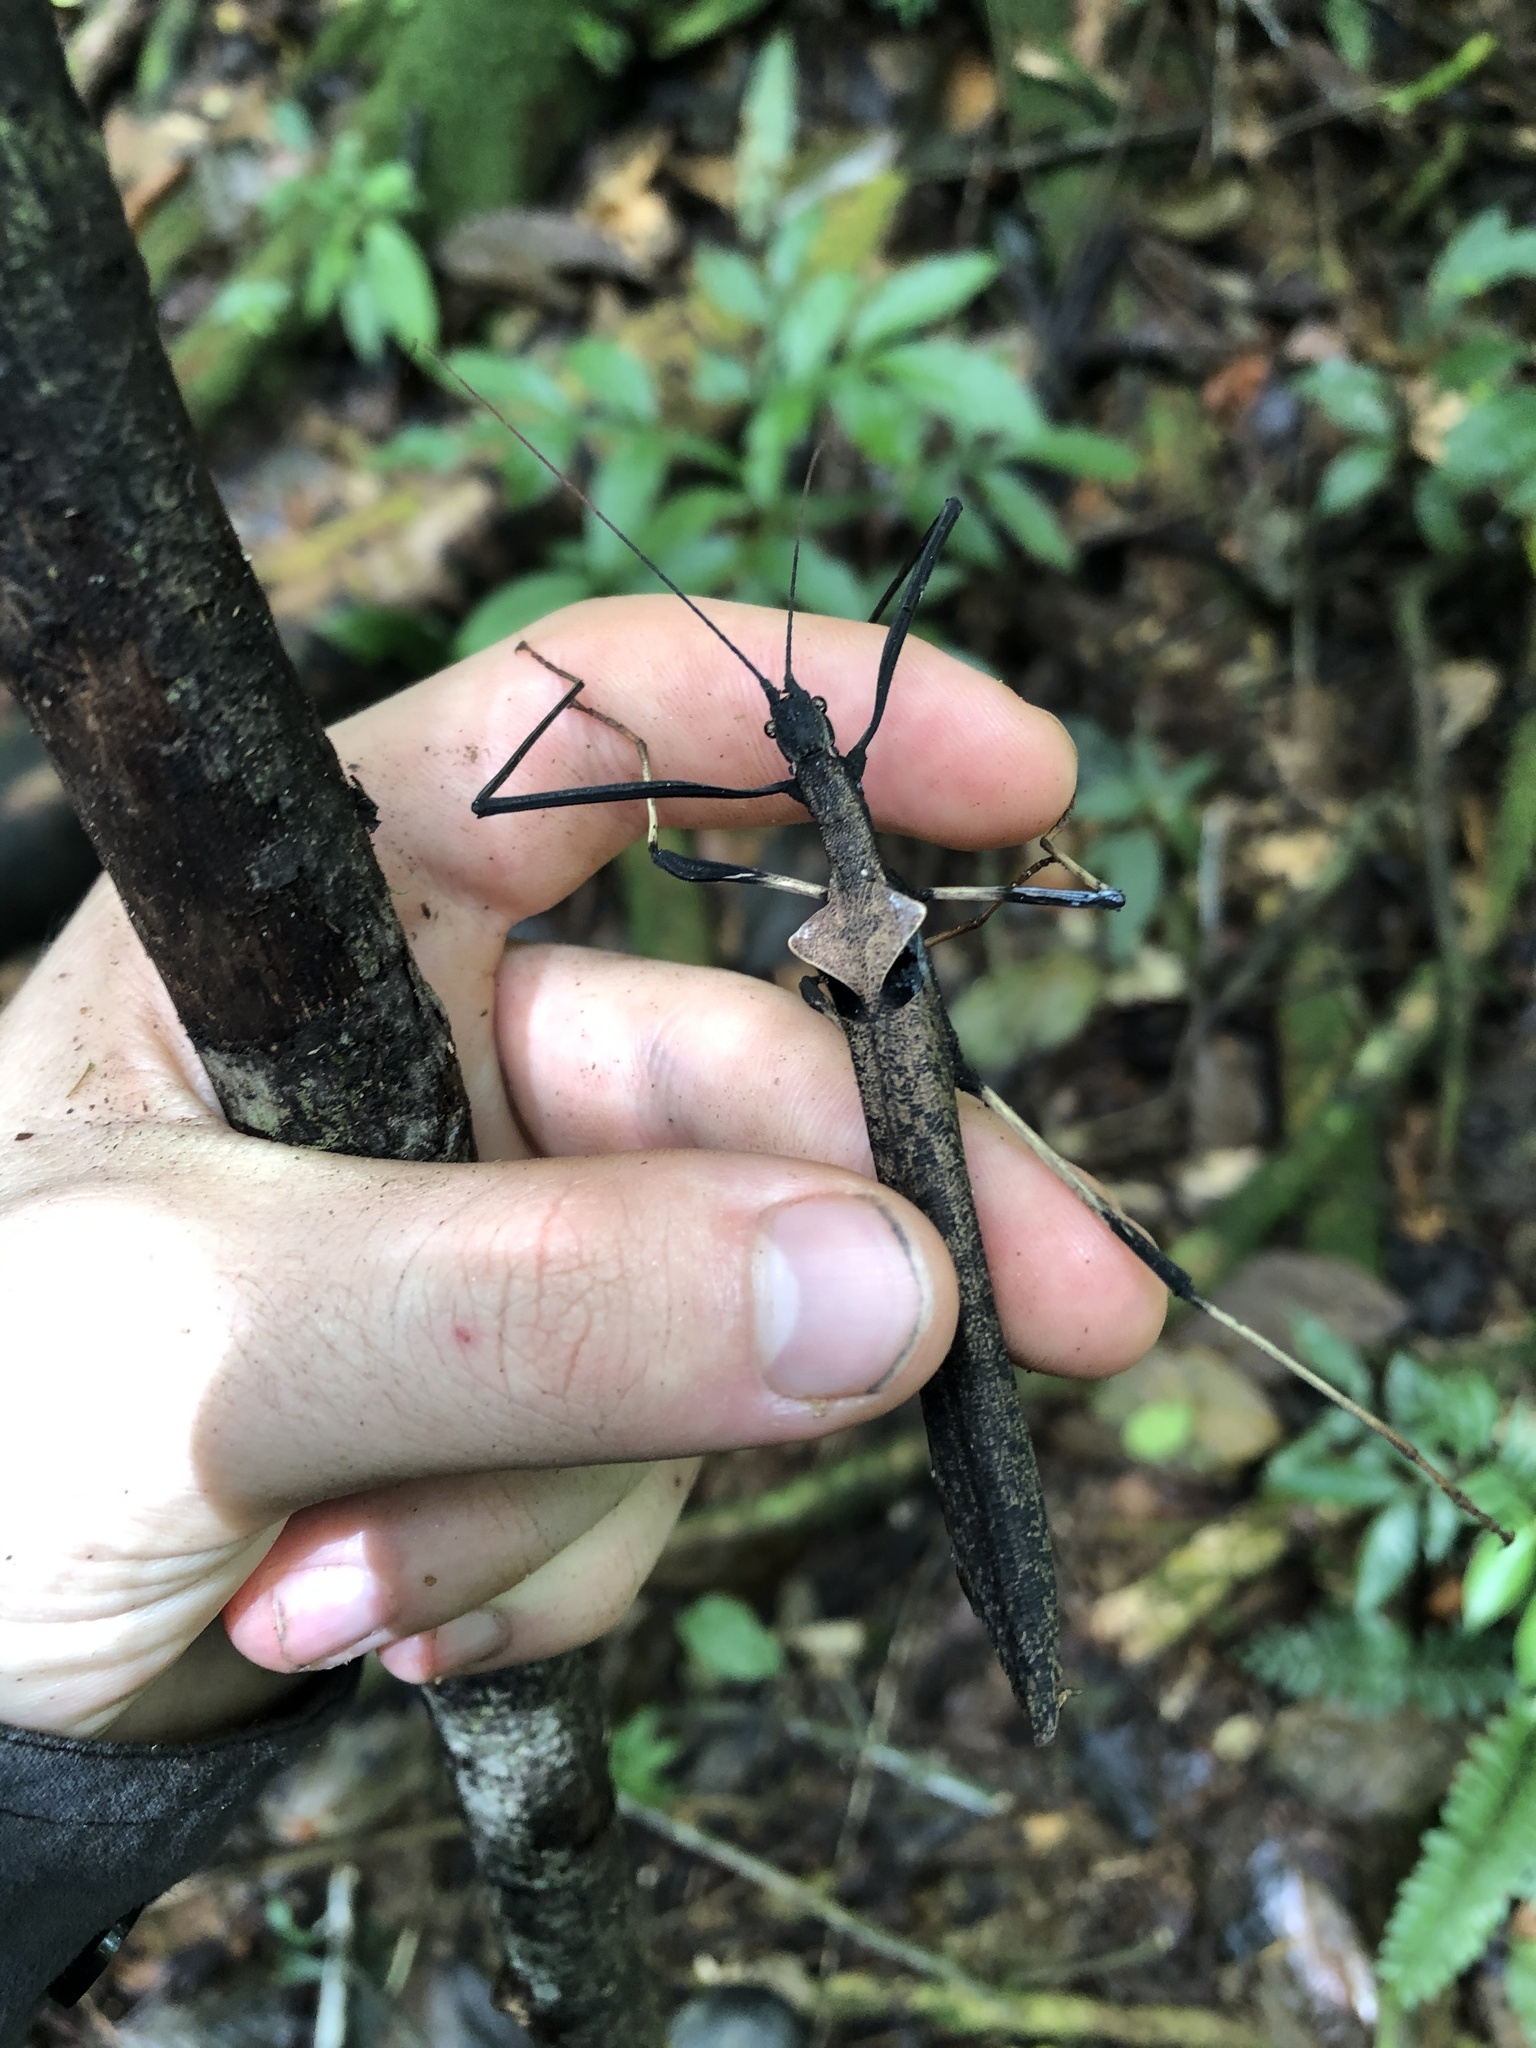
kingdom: Animalia
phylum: Arthropoda
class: Insecta
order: Phasmida
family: Pseudophasmatidae
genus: Pseudophasma
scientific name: Pseudophasma bolivari
